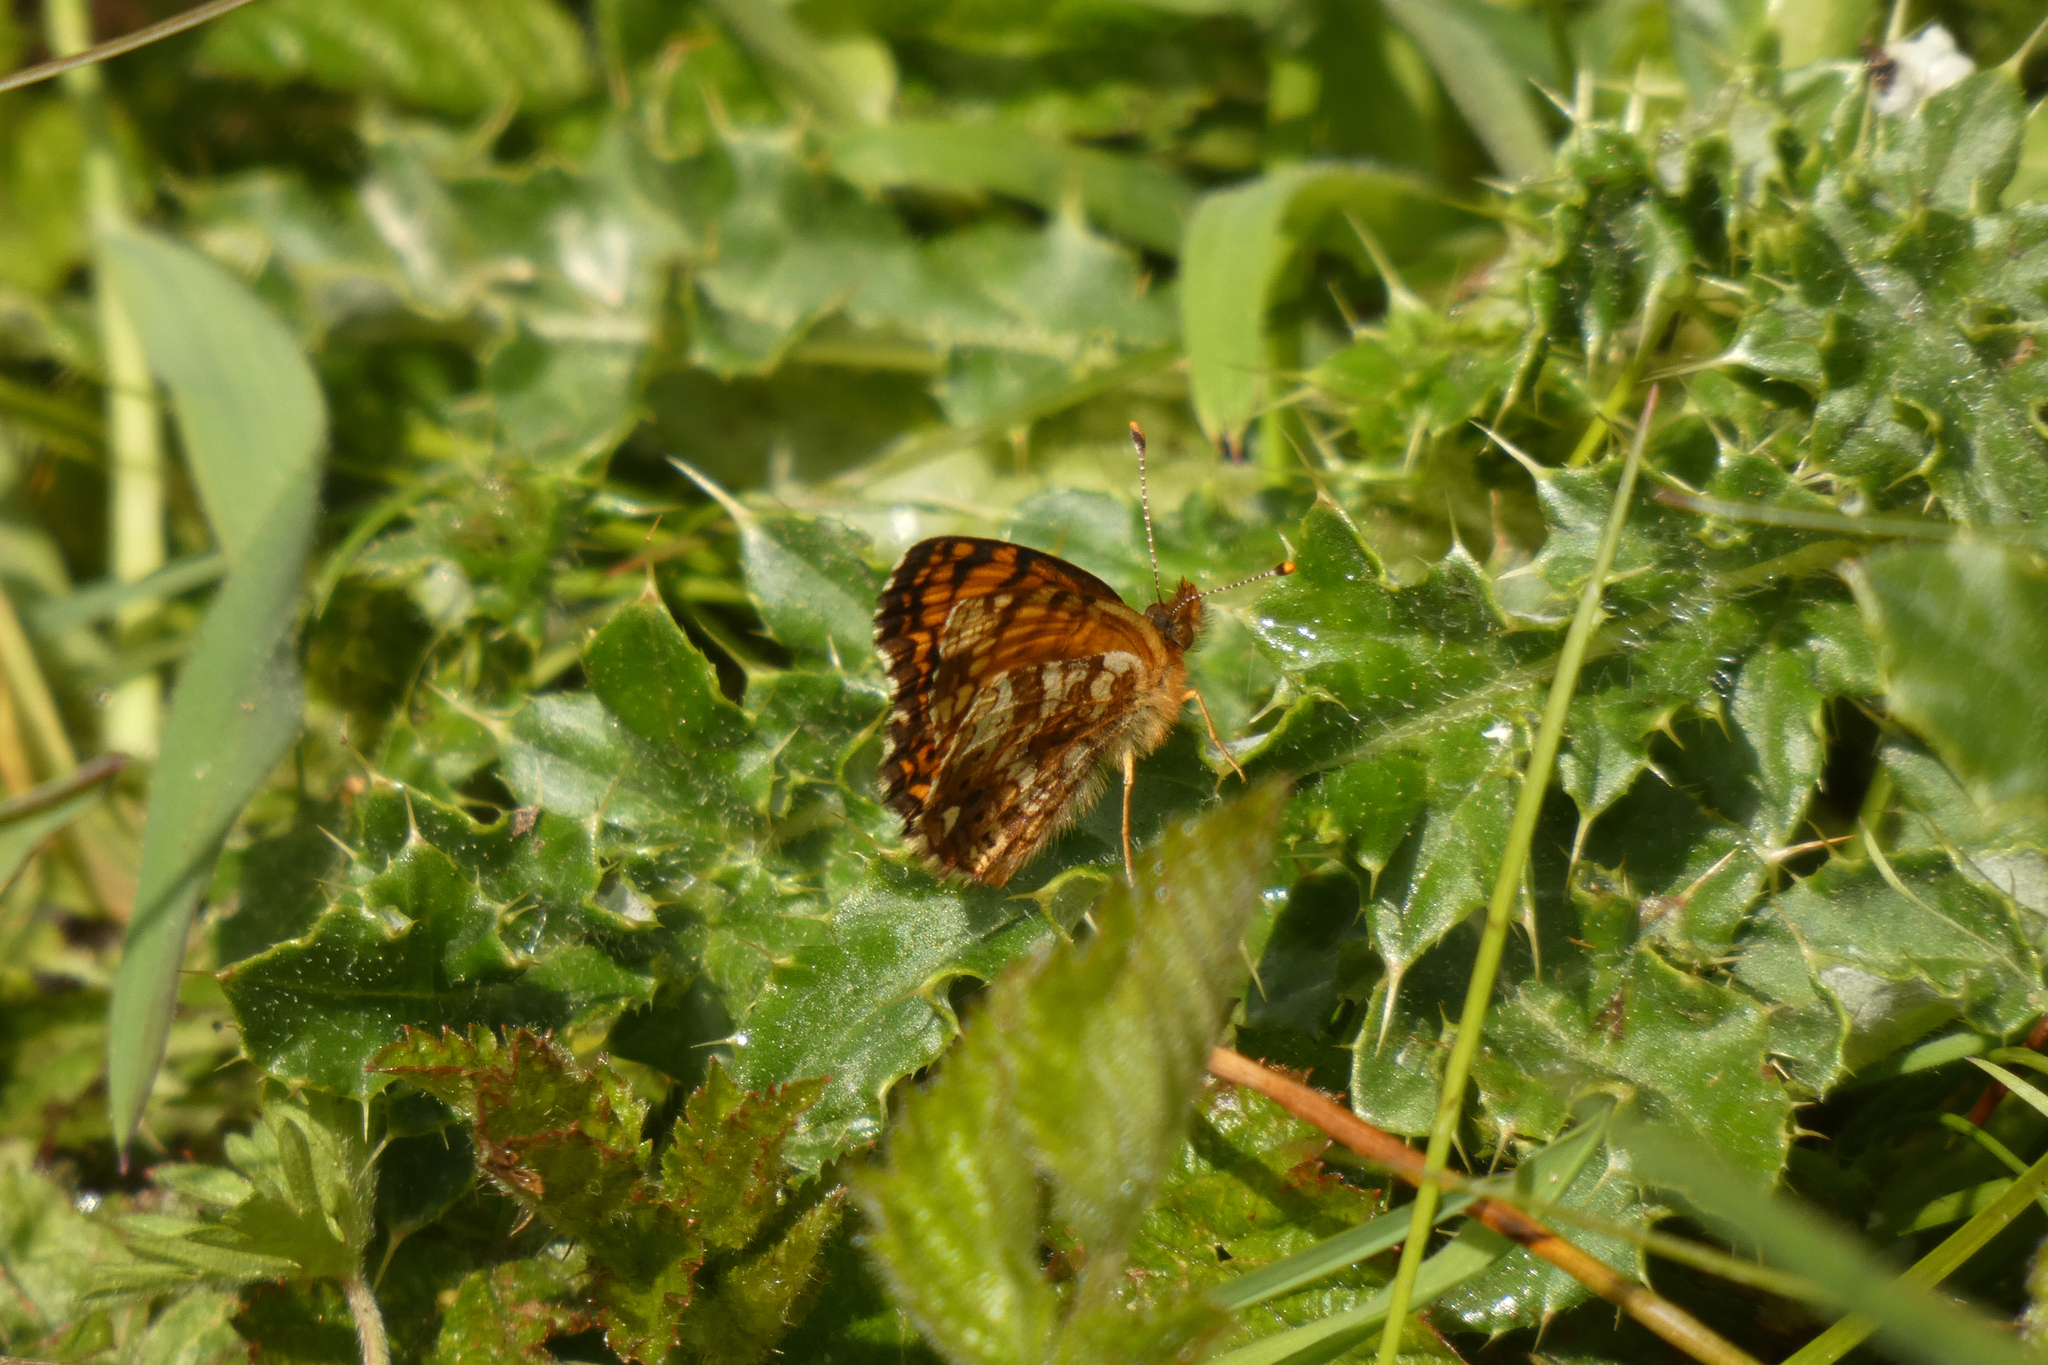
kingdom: Animalia
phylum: Arthropoda
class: Insecta
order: Lepidoptera
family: Nymphalidae
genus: Eresia
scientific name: Eresia aveyrona
